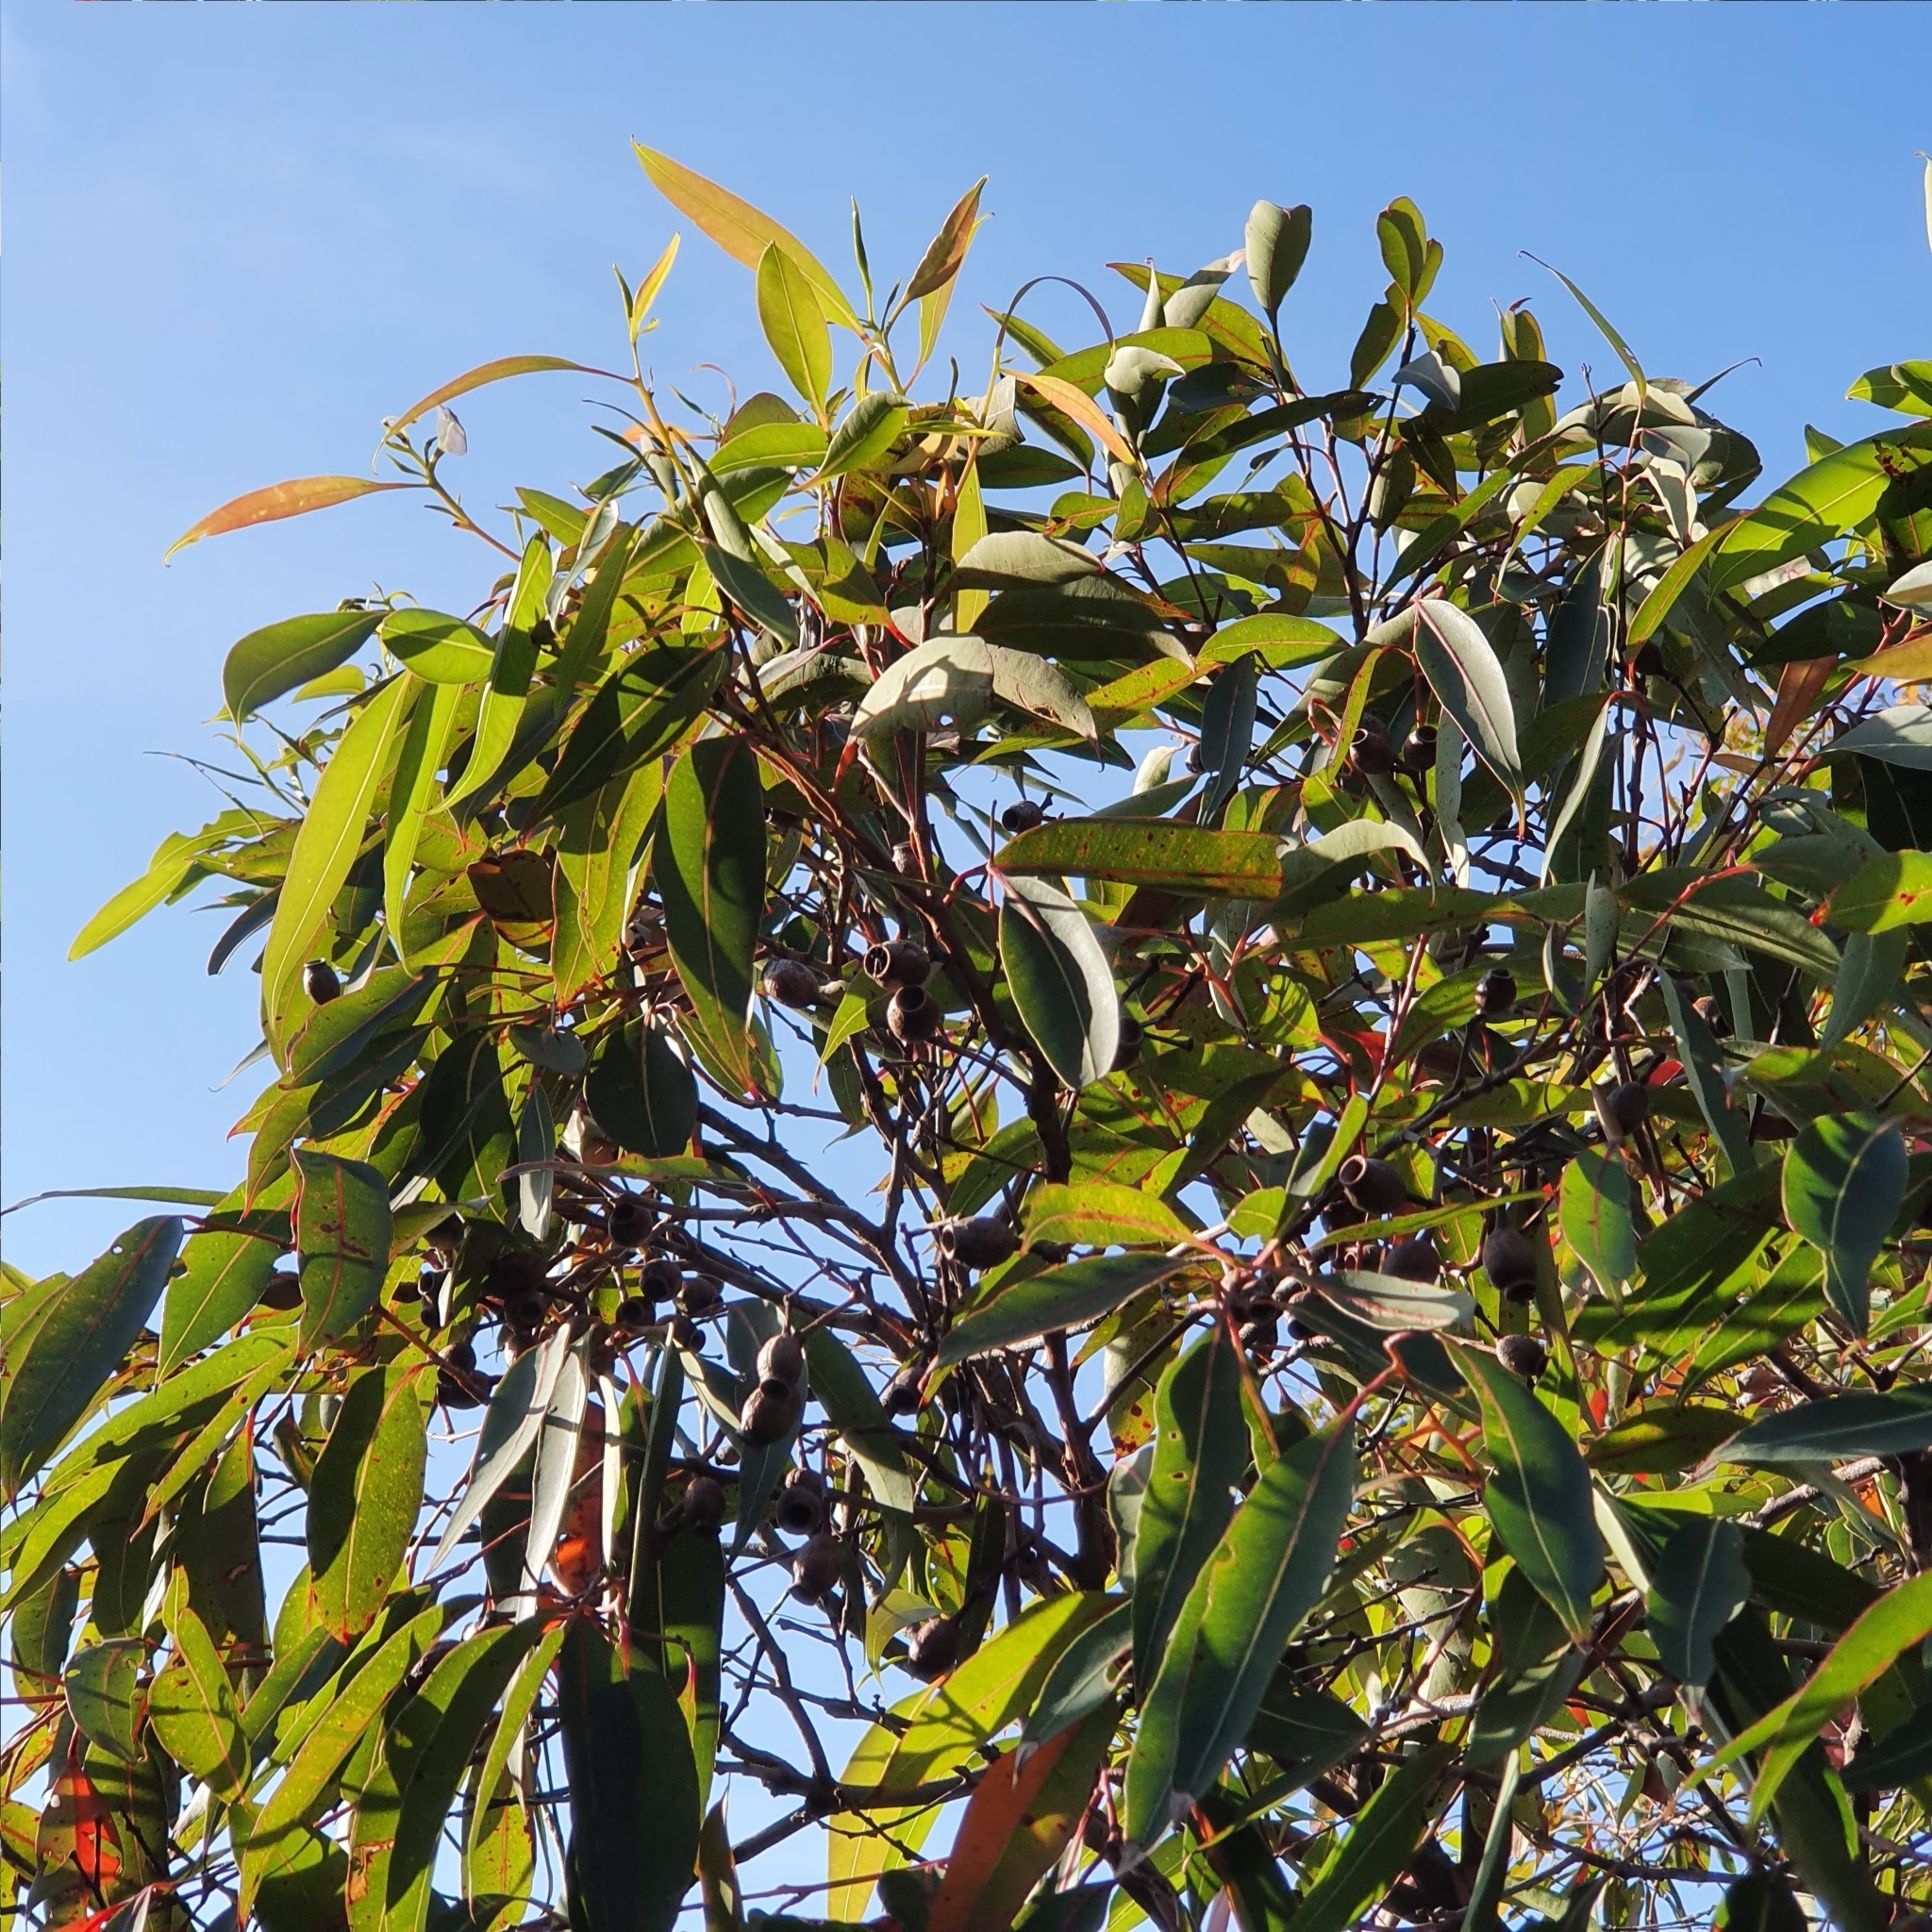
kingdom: Plantae
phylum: Tracheophyta
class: Magnoliopsida
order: Myrtales
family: Myrtaceae
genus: Corymbia
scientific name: Corymbia gummifera
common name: Red bloodwood
